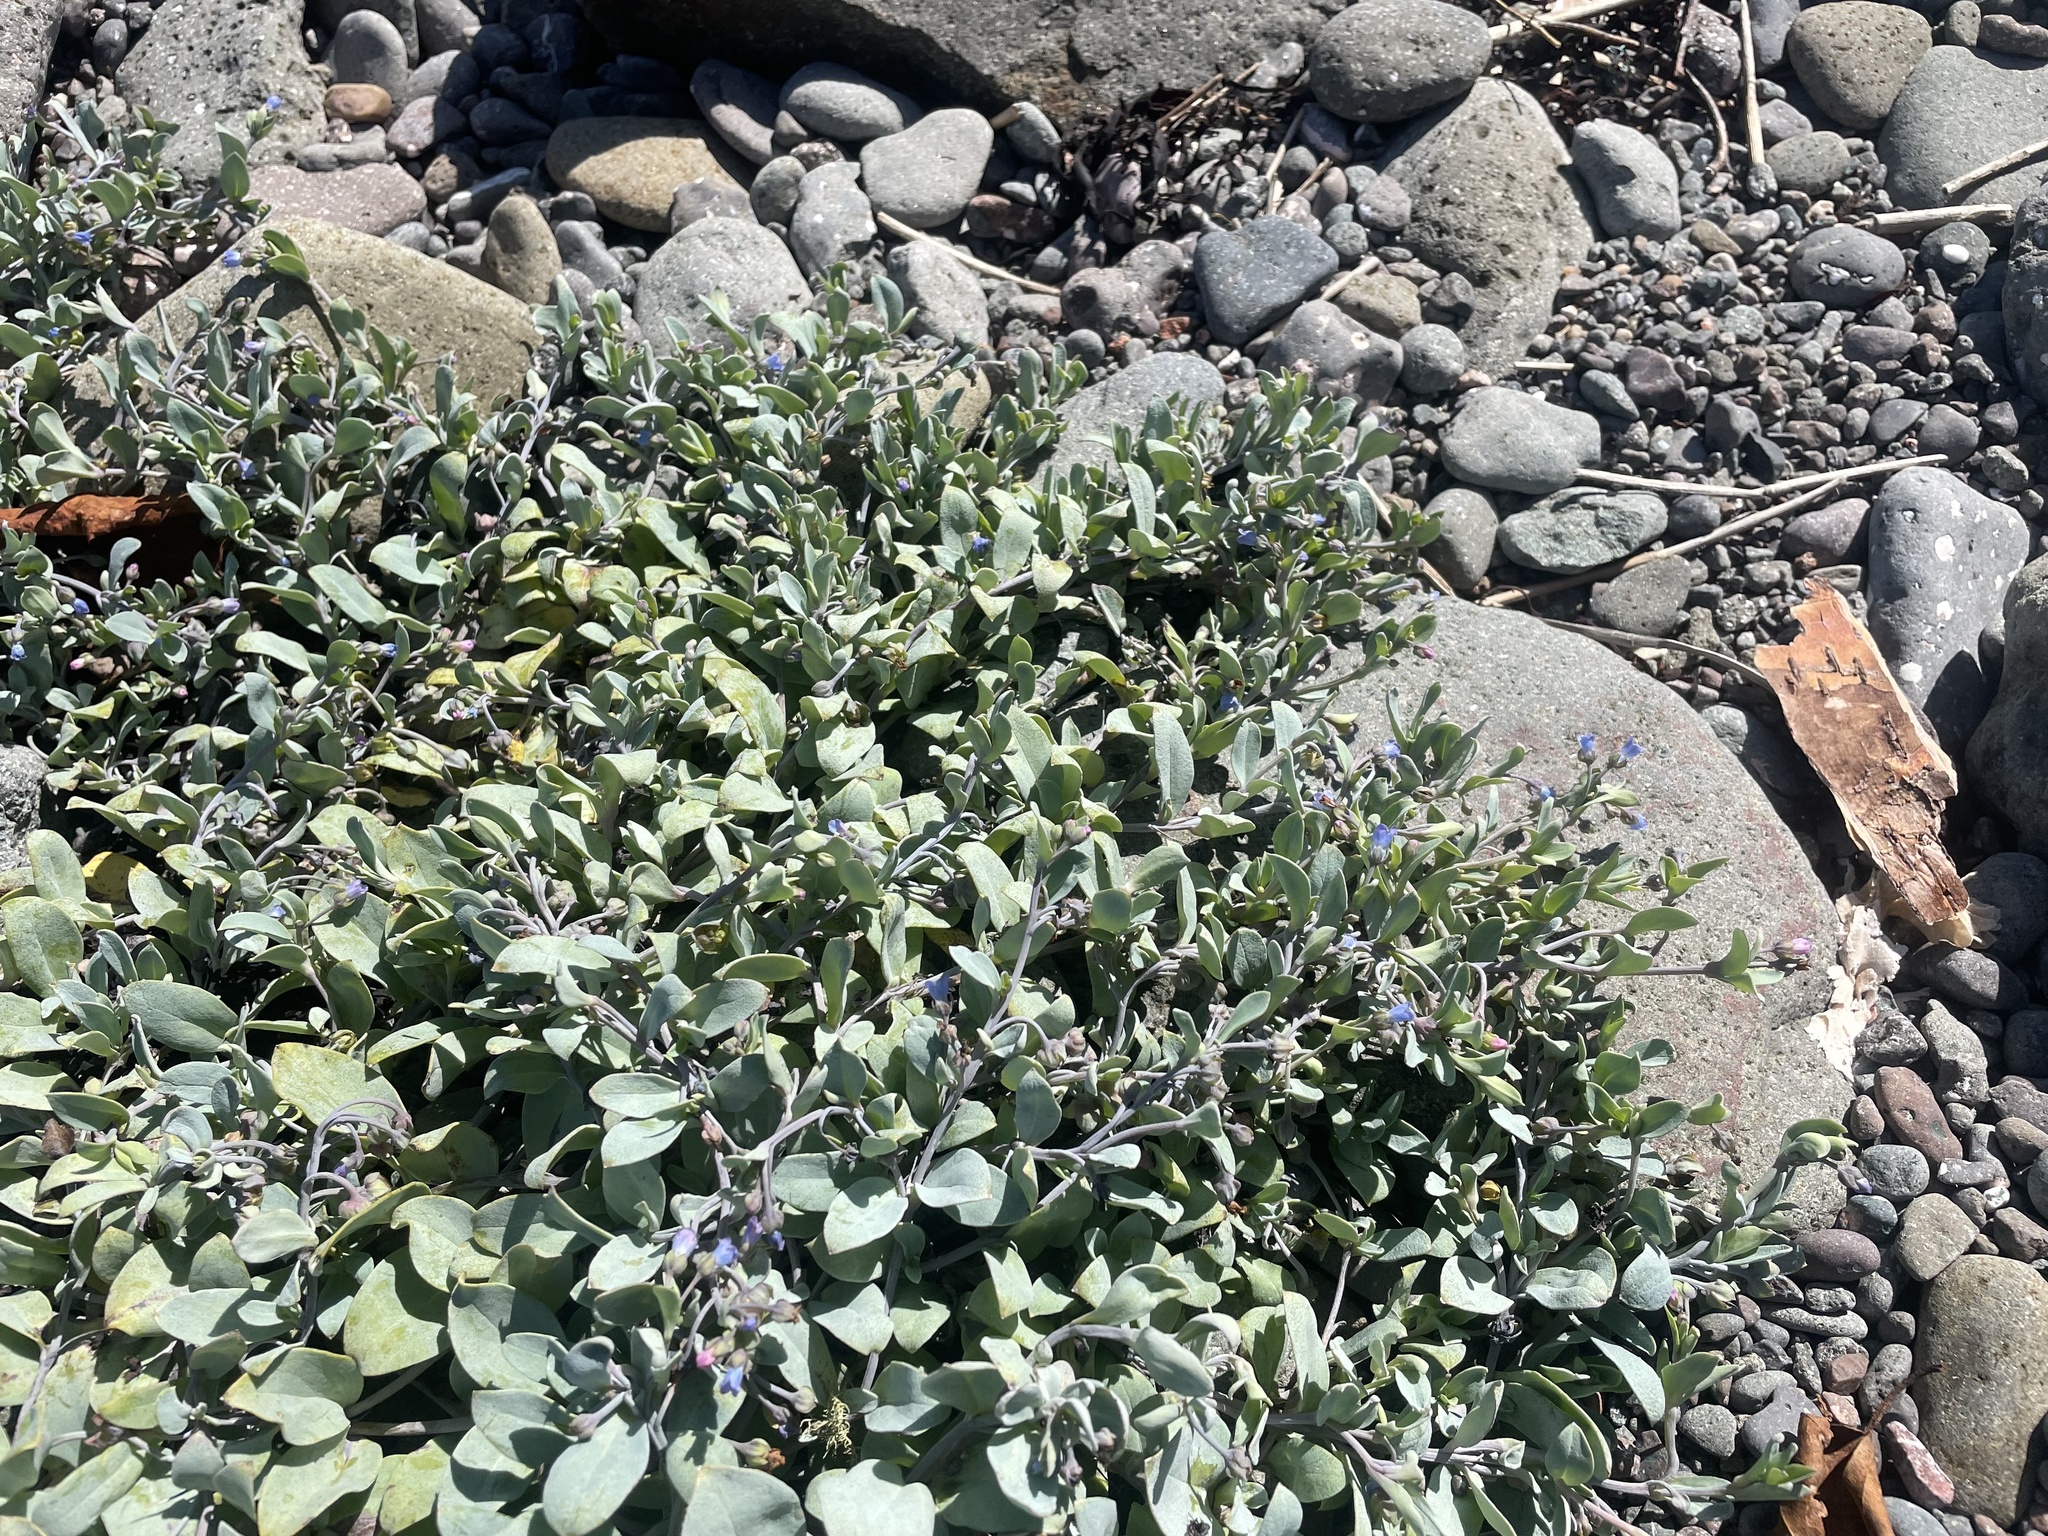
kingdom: Plantae
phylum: Tracheophyta
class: Magnoliopsida
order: Boraginales
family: Boraginaceae
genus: Mertensia
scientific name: Mertensia maritima
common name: Oysterplant
